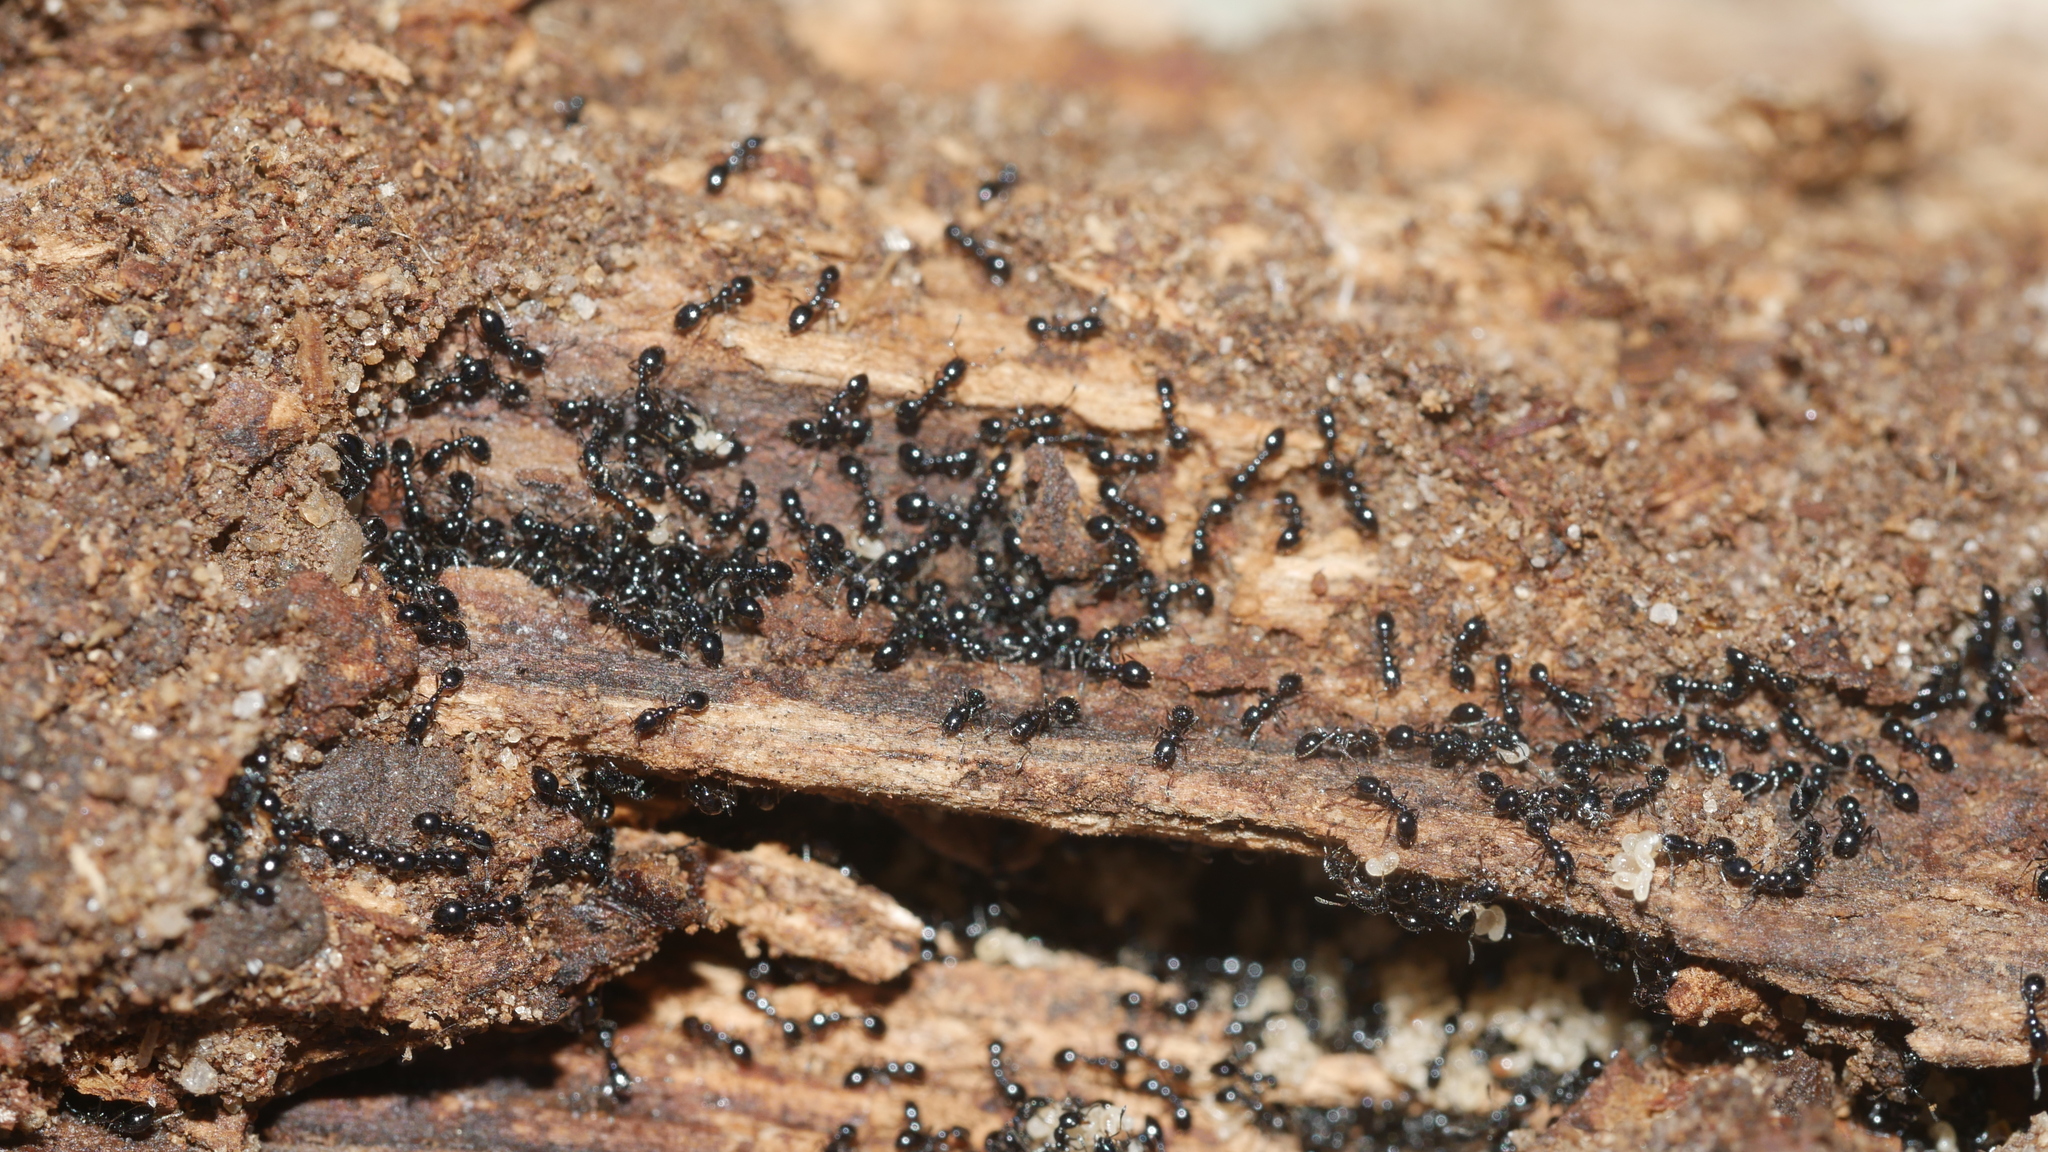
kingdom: Animalia
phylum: Arthropoda
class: Insecta
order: Hymenoptera
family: Formicidae
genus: Monomorium
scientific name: Monomorium
